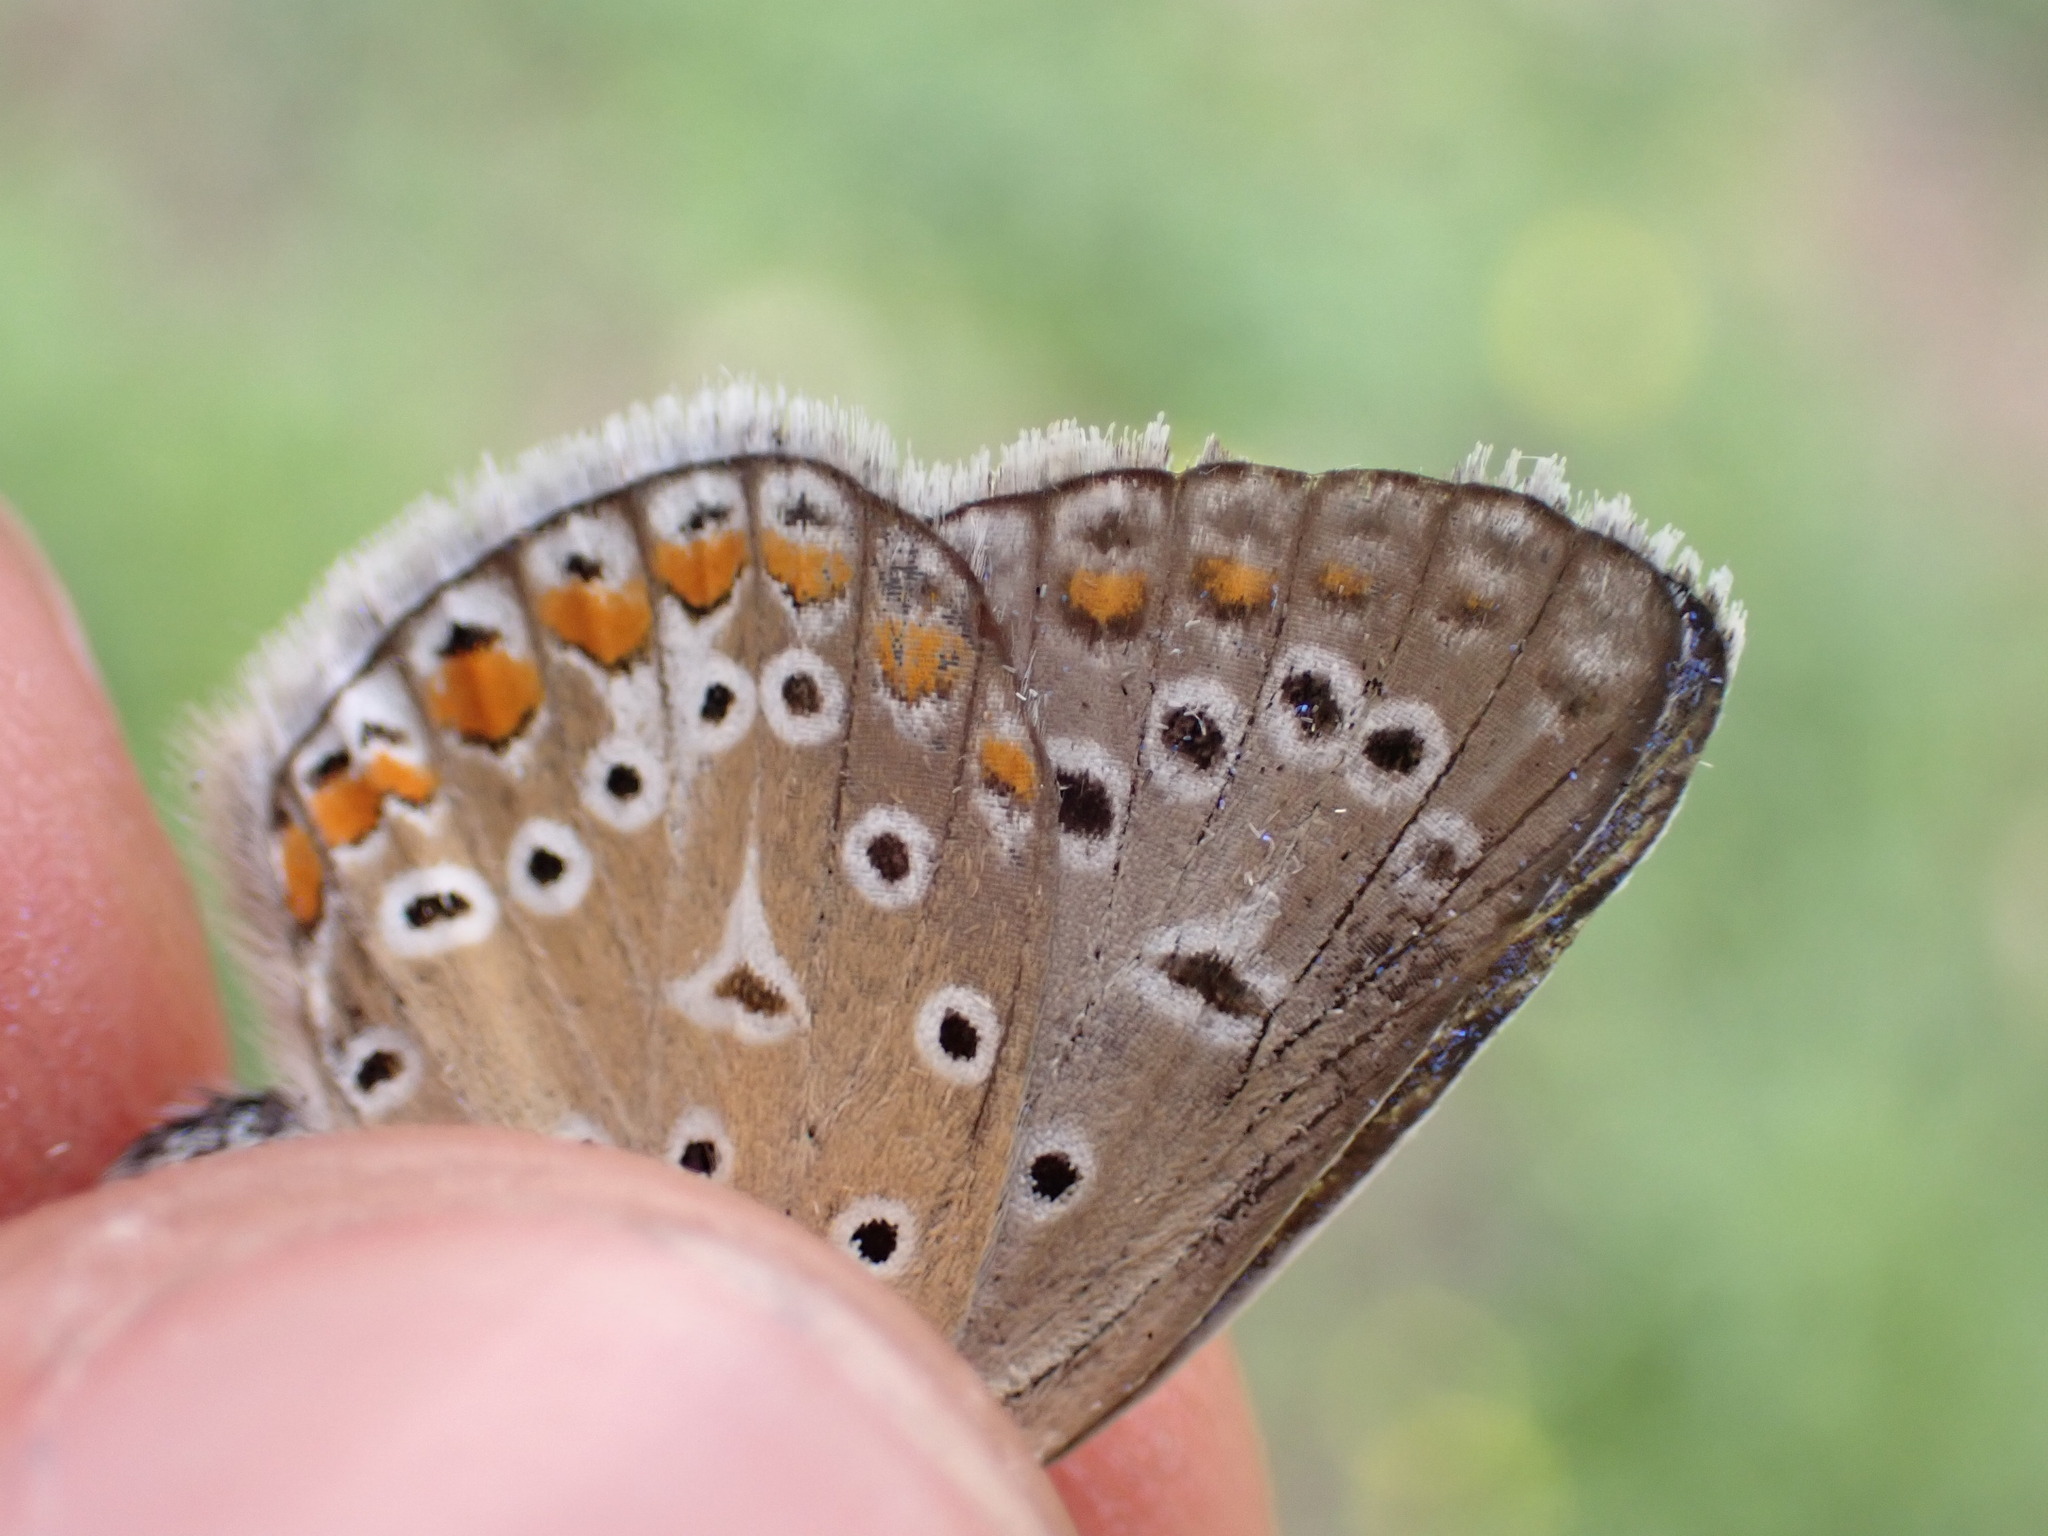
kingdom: Animalia
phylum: Arthropoda
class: Insecta
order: Lepidoptera
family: Lycaenidae
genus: Polyommatus
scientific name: Polyommatus icarus
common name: Common blue
